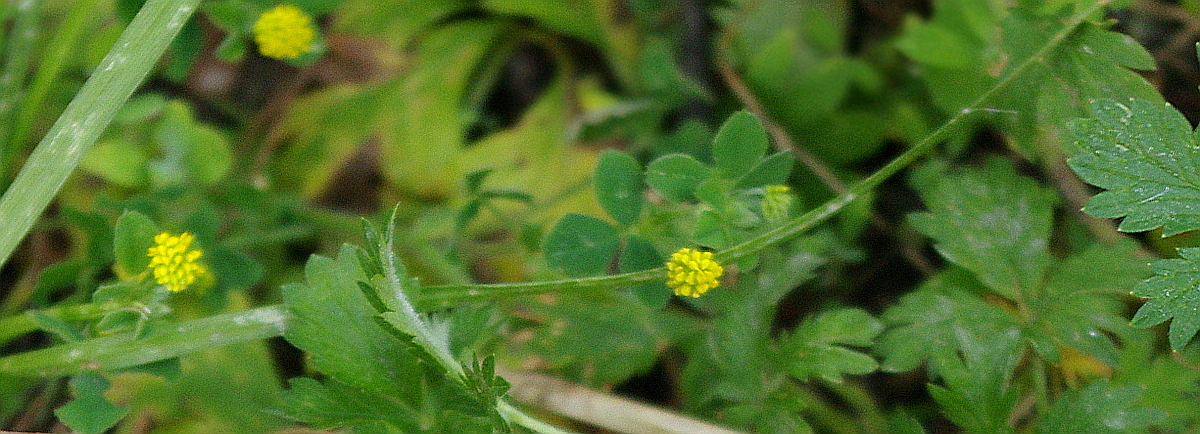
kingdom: Plantae
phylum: Tracheophyta
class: Magnoliopsida
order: Fabales
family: Fabaceae
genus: Medicago
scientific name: Medicago lupulina
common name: Black medick
